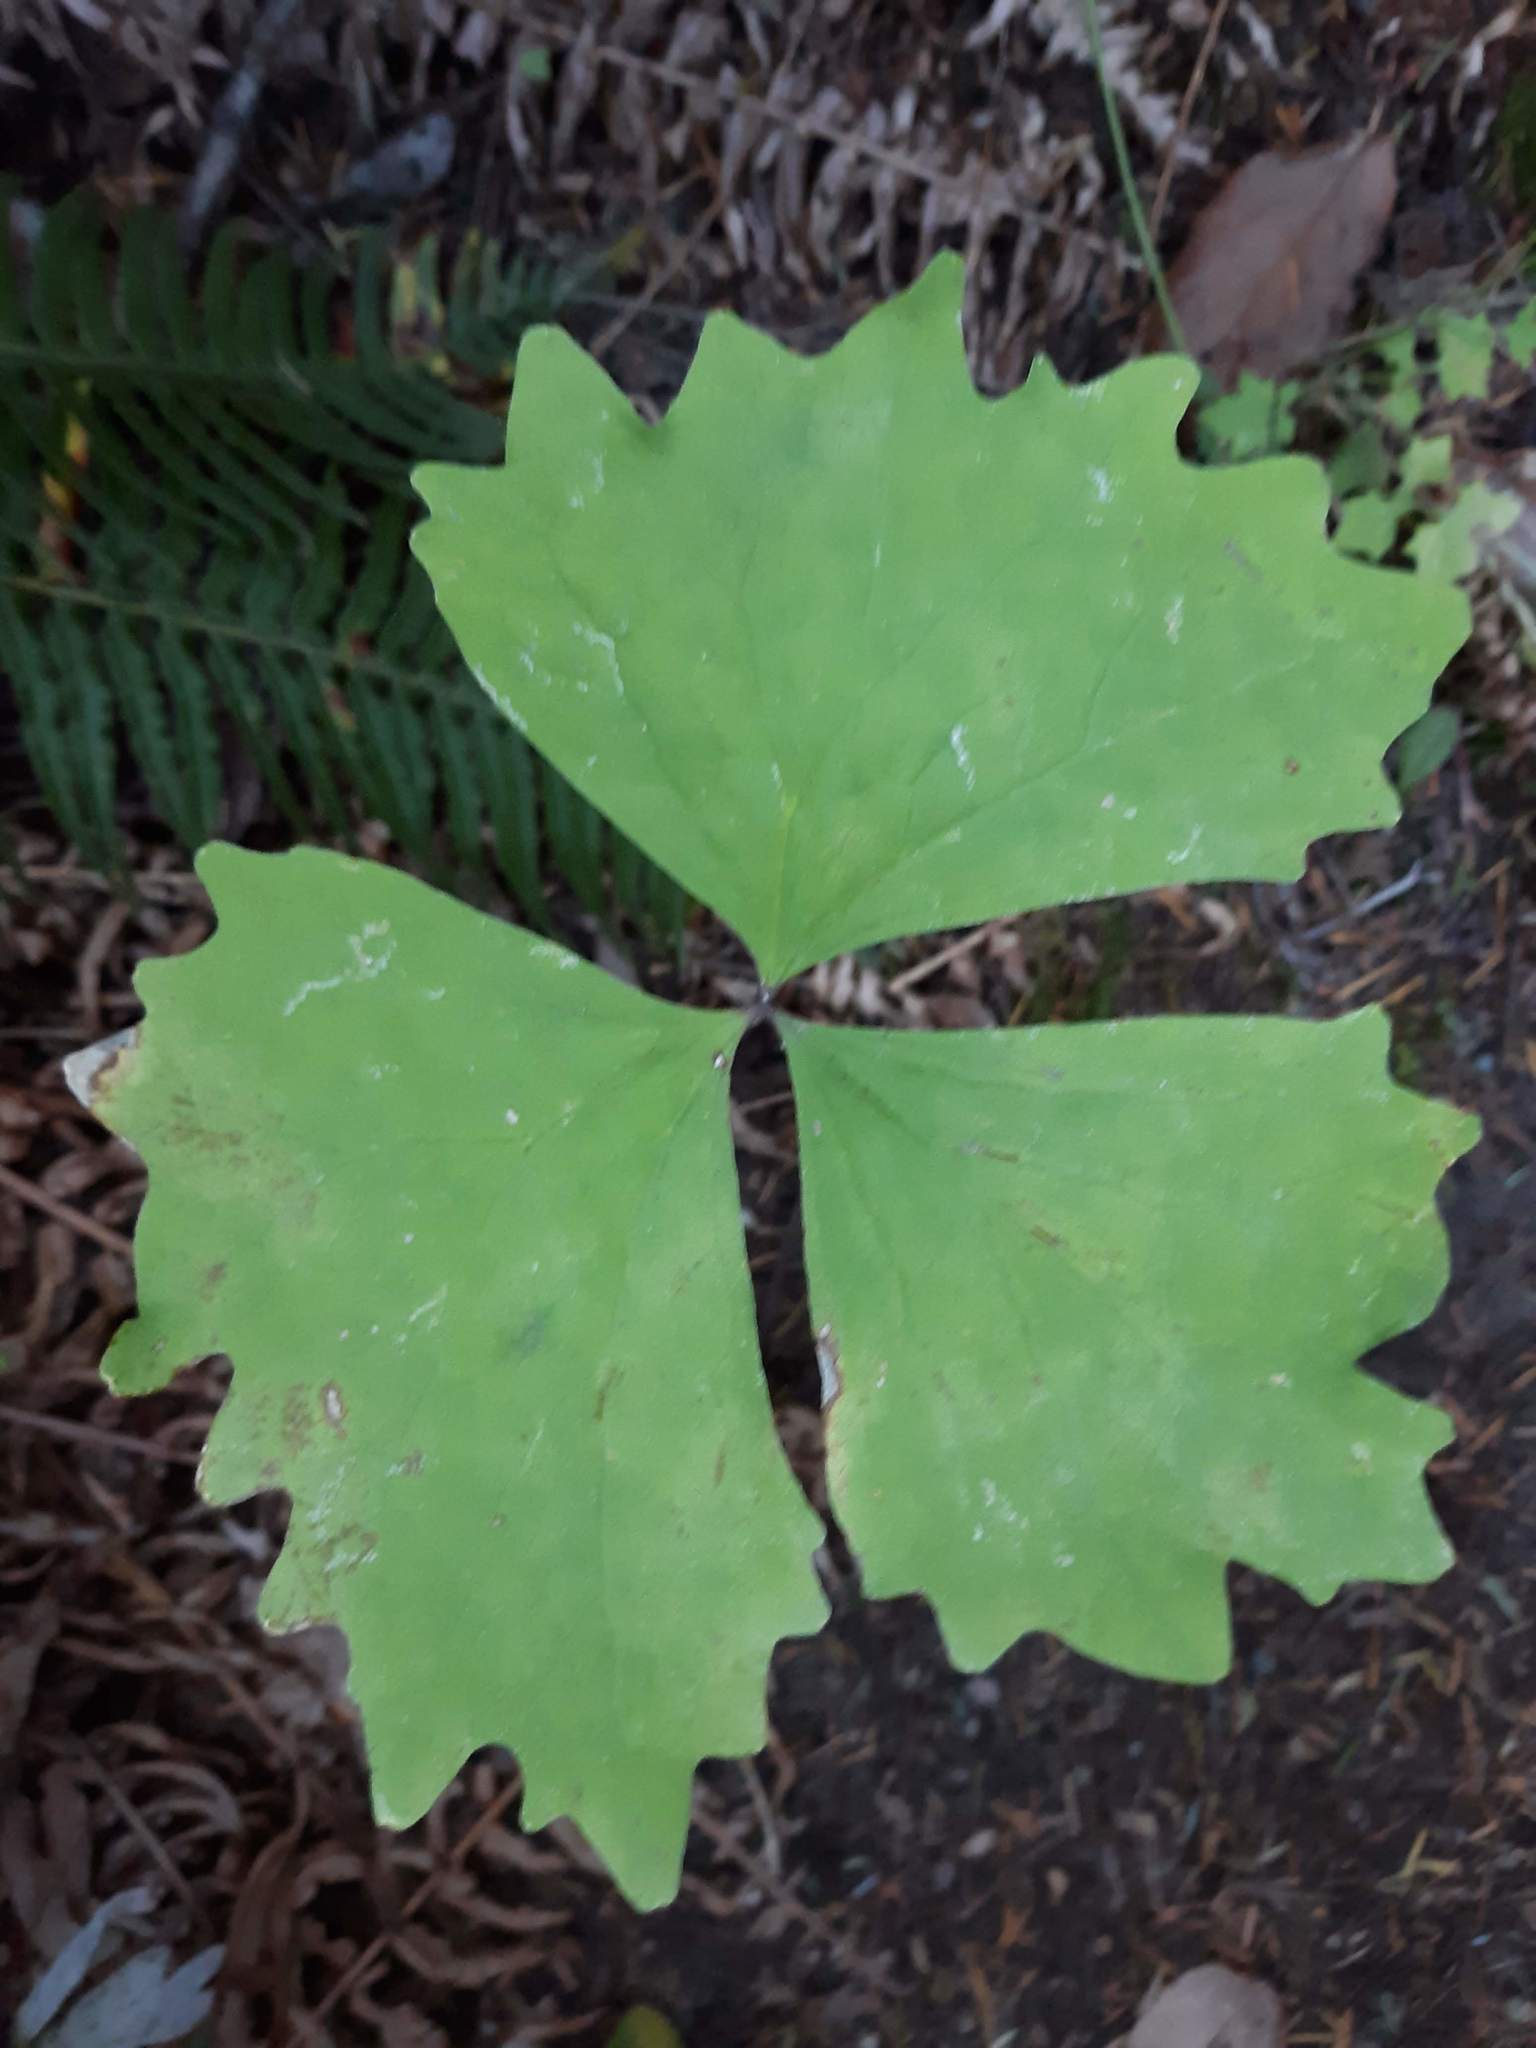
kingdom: Plantae
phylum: Tracheophyta
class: Magnoliopsida
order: Ranunculales
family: Berberidaceae
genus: Achlys
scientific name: Achlys triphylla
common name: Vanilla-leaf
